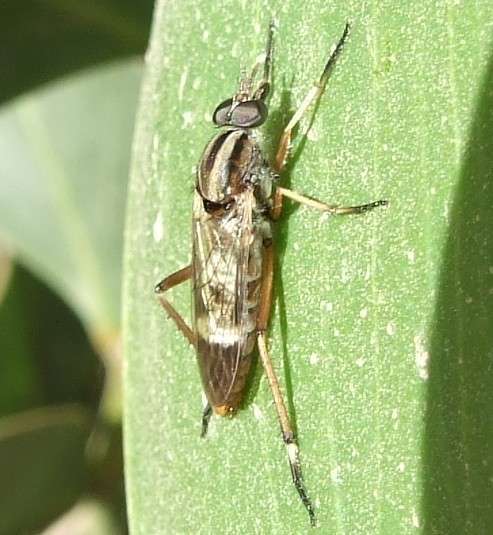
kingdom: Animalia
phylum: Arthropoda
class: Insecta
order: Diptera
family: Therevidae
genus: Ectinorhynchus
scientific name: Ectinorhynchus
